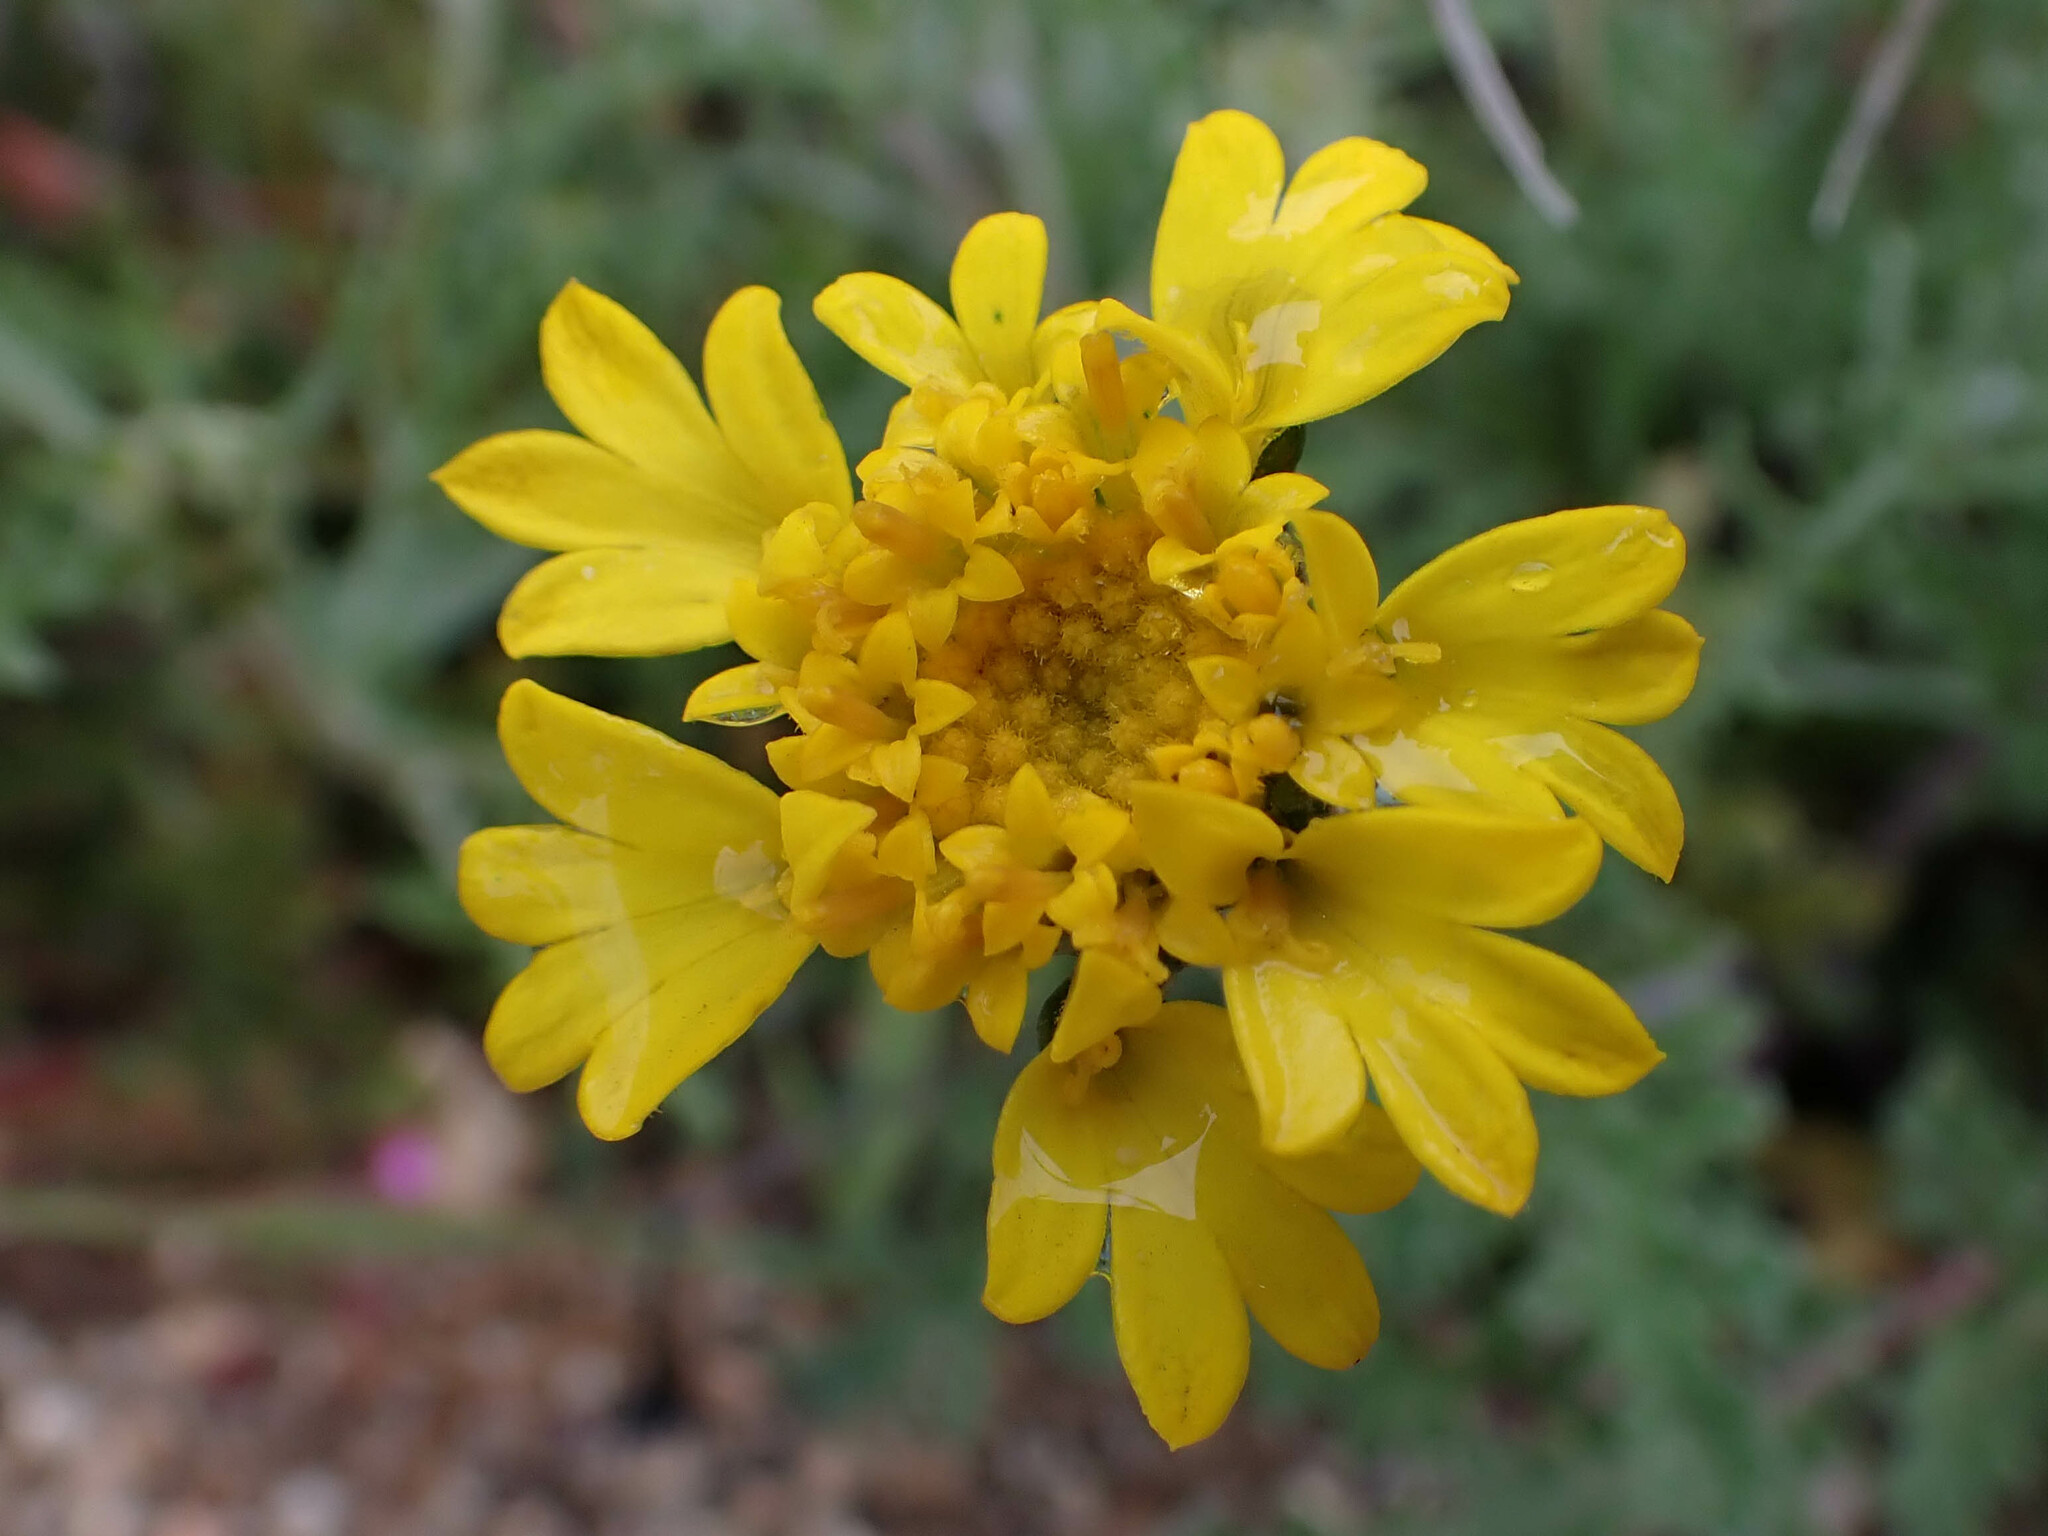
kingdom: Plantae
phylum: Tracheophyta
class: Magnoliopsida
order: Asterales
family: Asteraceae
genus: Chaenactis
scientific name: Chaenactis glabriuscula
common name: Yellow pincushion
